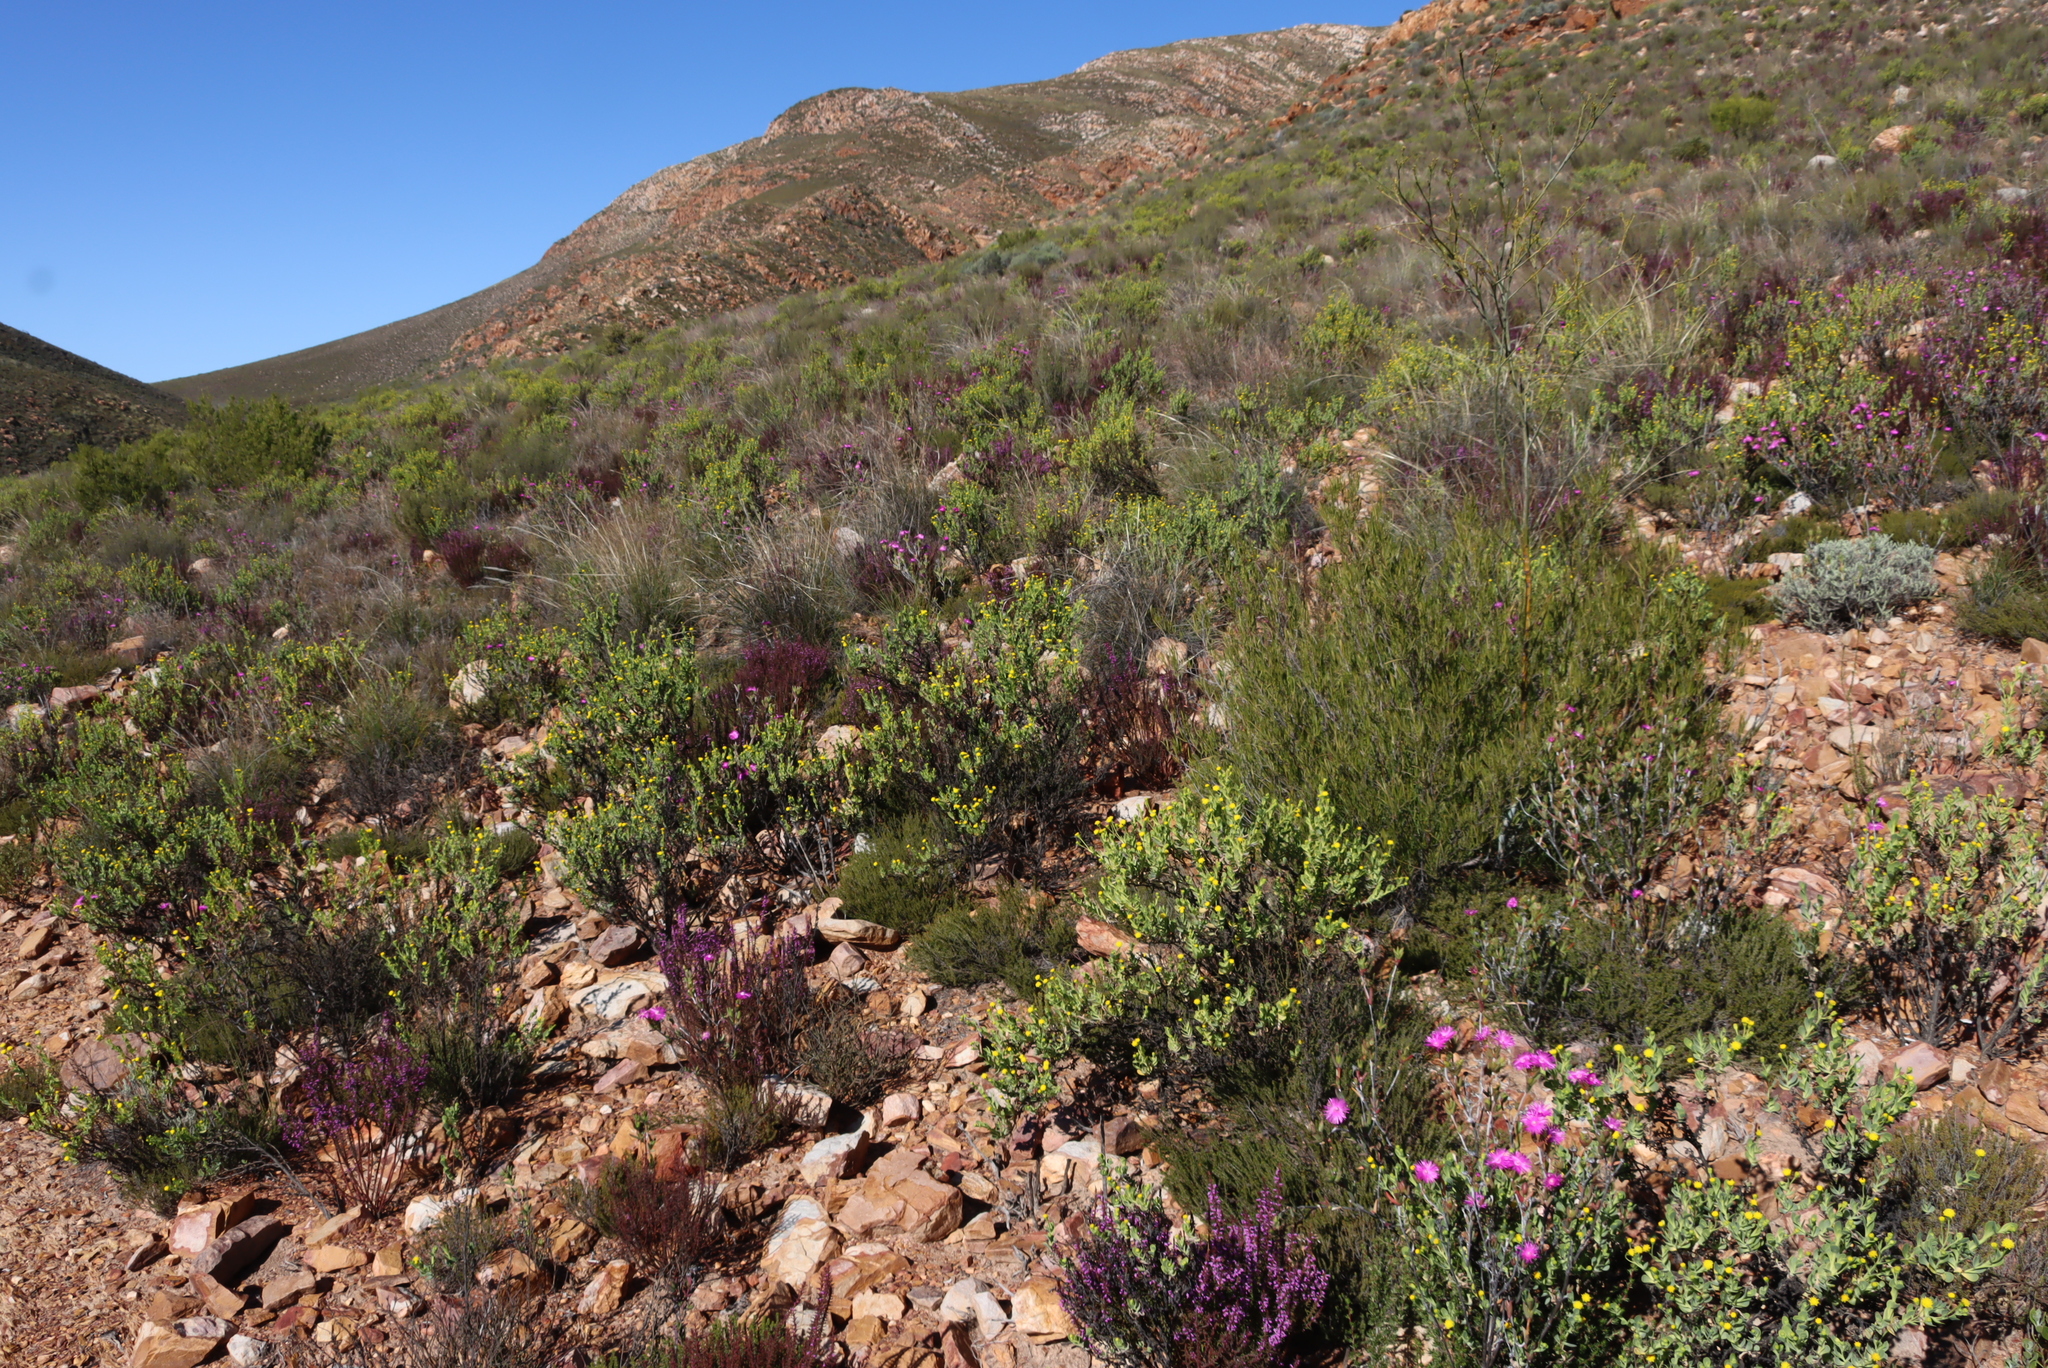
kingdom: Plantae
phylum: Tracheophyta
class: Magnoliopsida
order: Fabales
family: Polygalaceae
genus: Muraltia
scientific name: Muraltia juniperifolia
